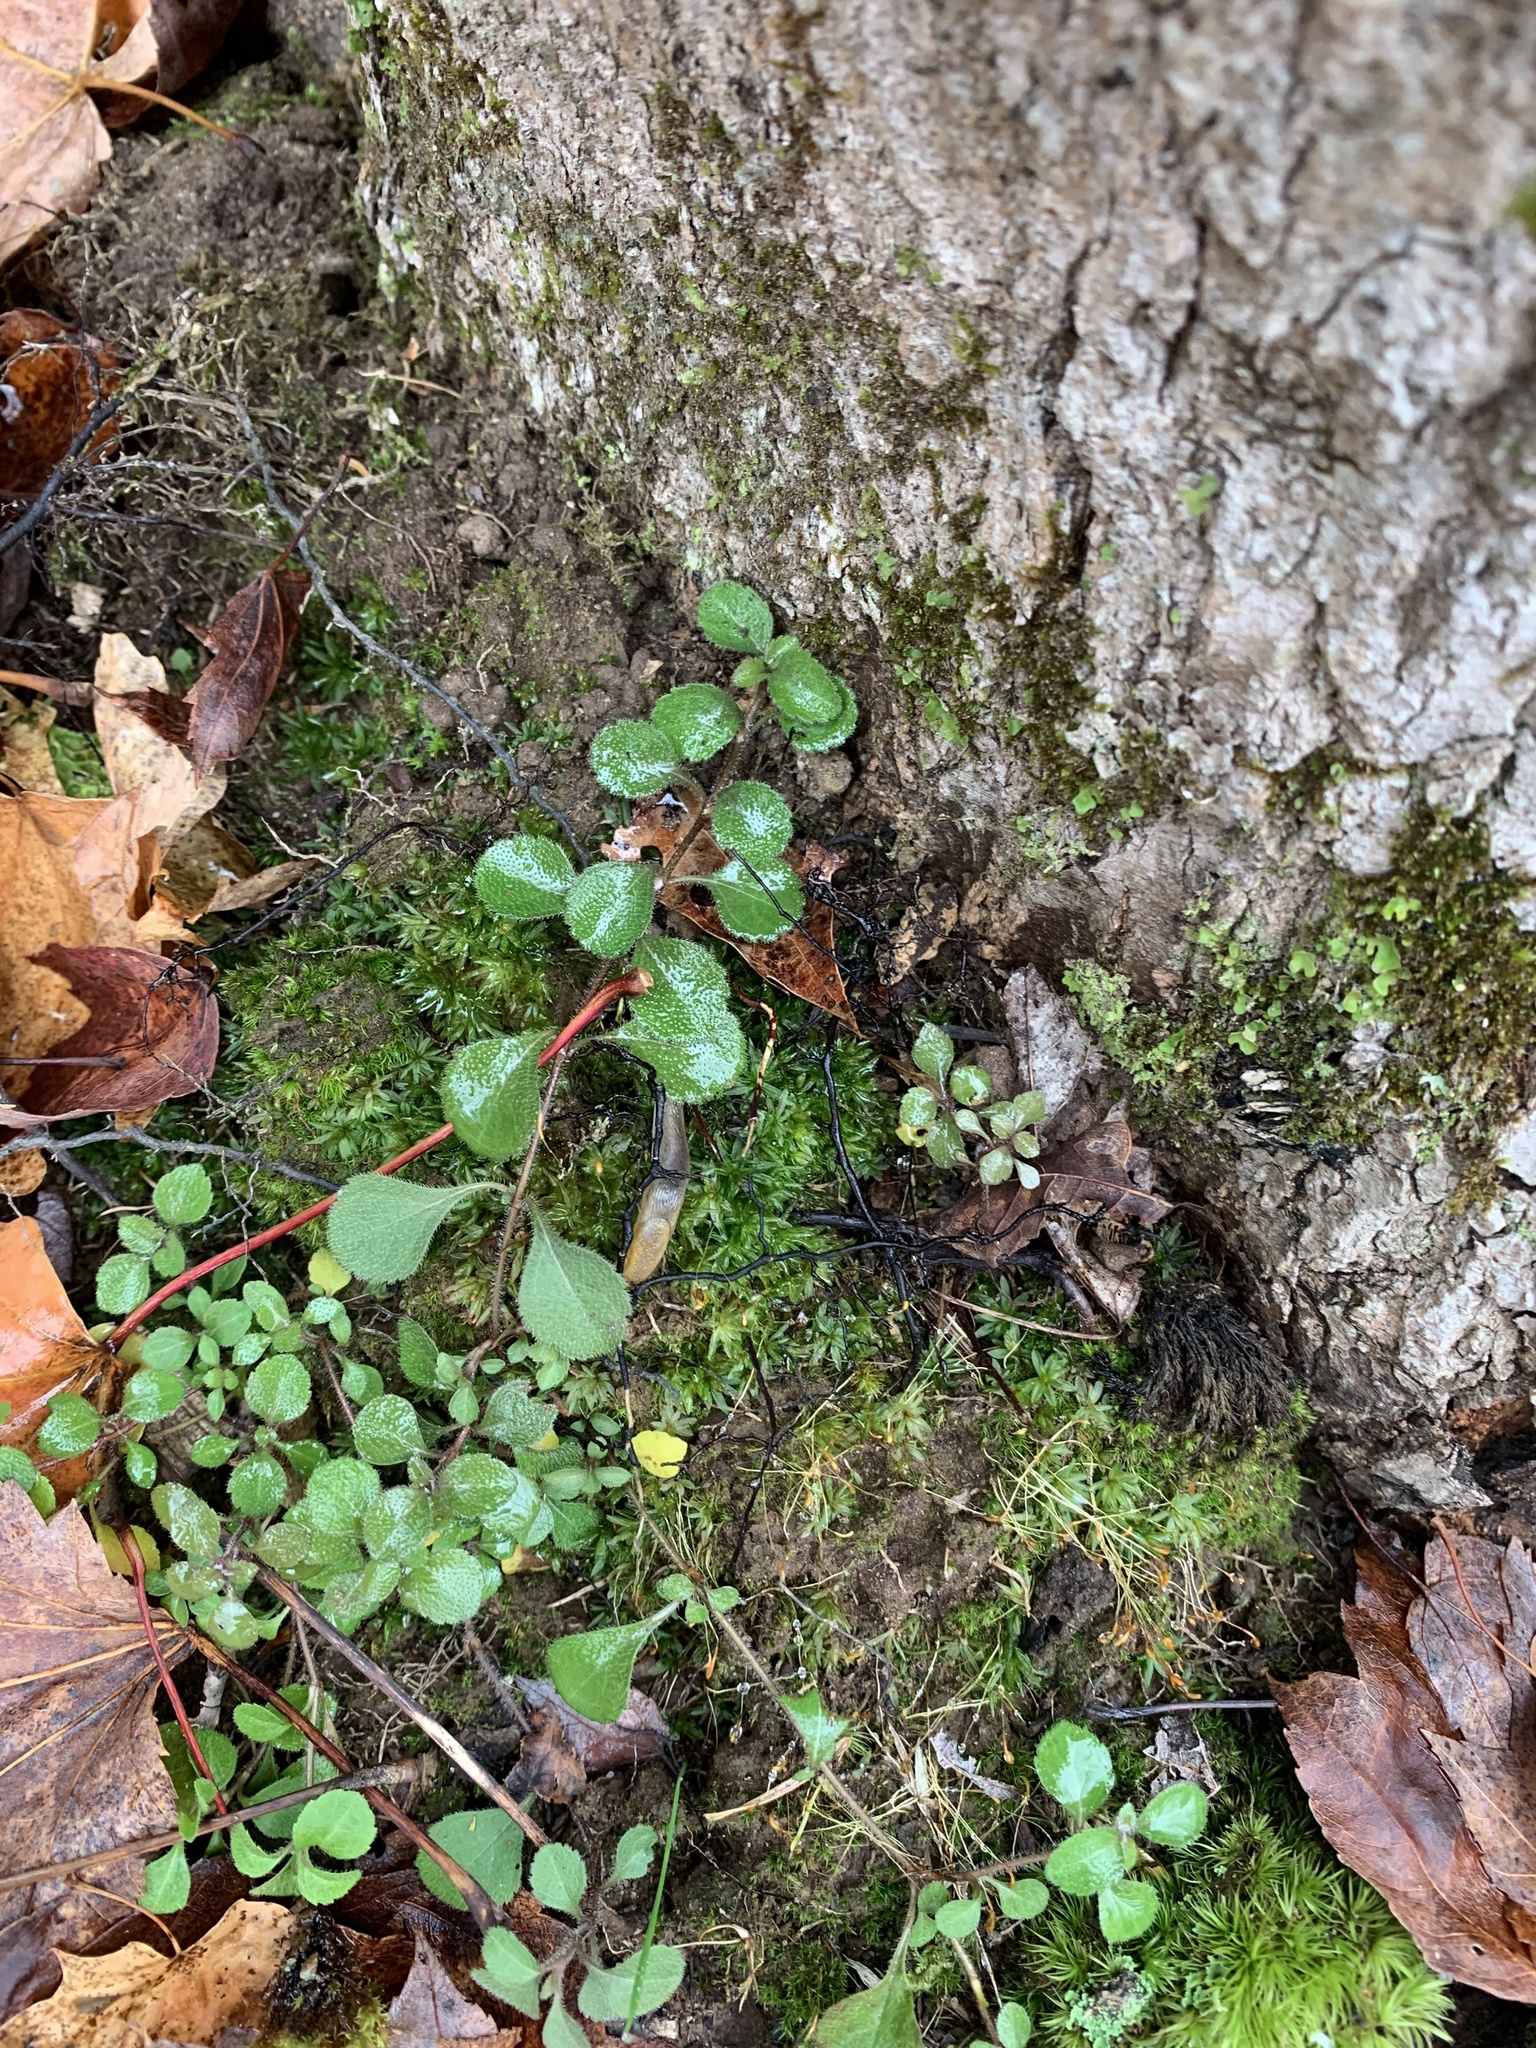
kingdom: Plantae
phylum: Tracheophyta
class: Magnoliopsida
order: Dipsacales
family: Caprifoliaceae
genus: Linnaea
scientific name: Linnaea borealis
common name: Twinflower
